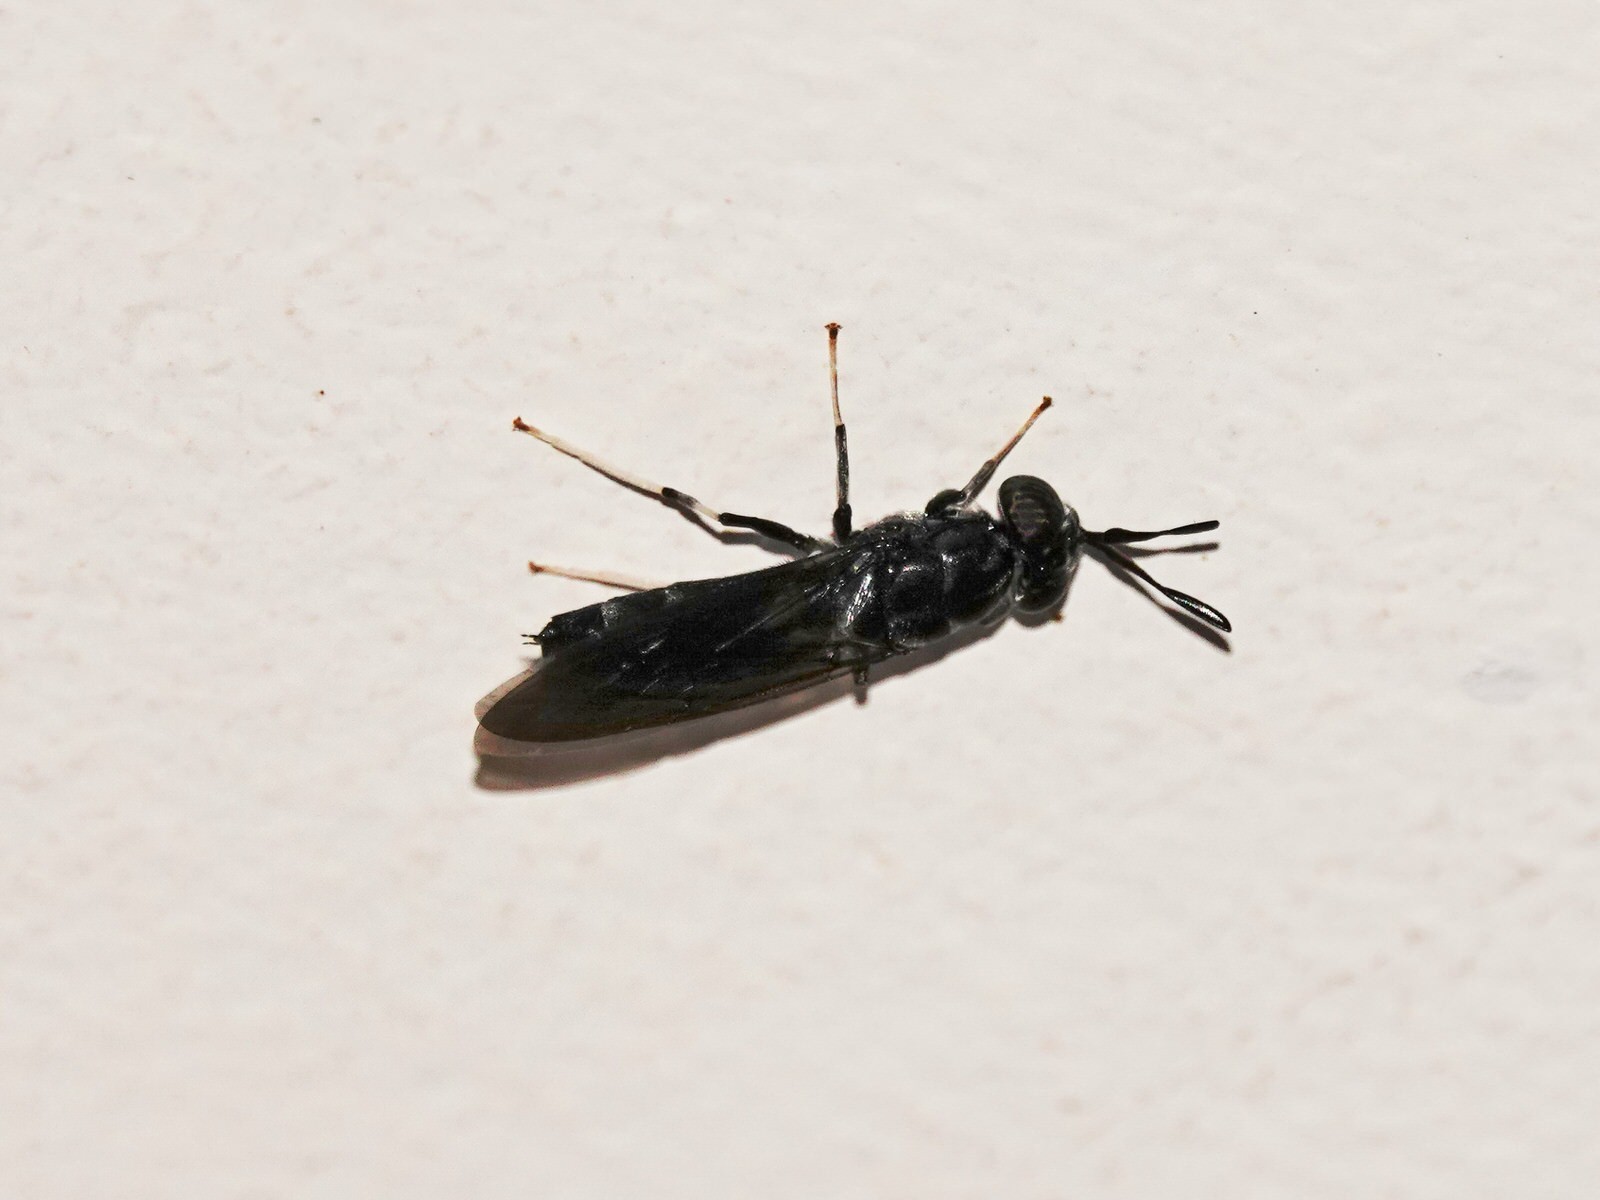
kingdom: Animalia
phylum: Arthropoda
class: Insecta
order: Diptera
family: Stratiomyidae
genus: Hermetia
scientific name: Hermetia illucens
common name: Black soldier fly
